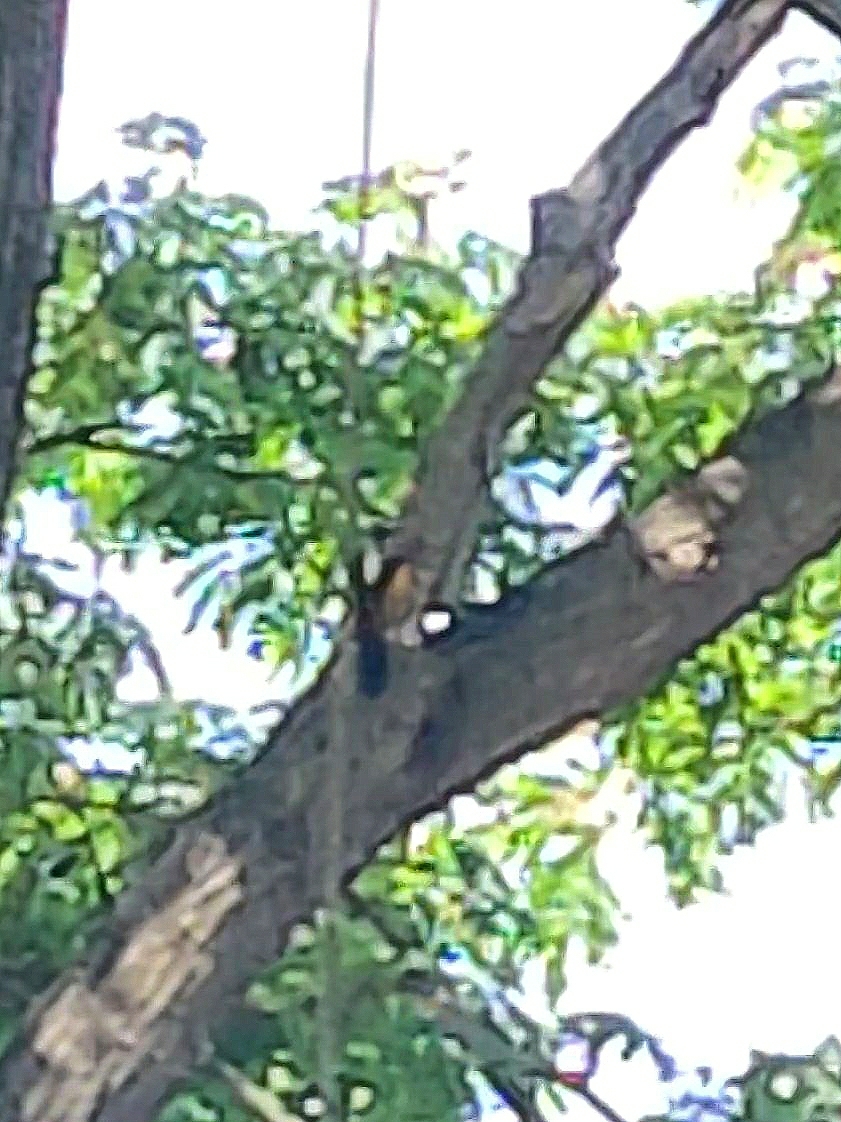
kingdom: Animalia
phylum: Chordata
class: Aves
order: Piciformes
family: Picidae
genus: Chrysocolaptes
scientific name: Chrysocolaptes festivus
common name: White-naped woodpecker
